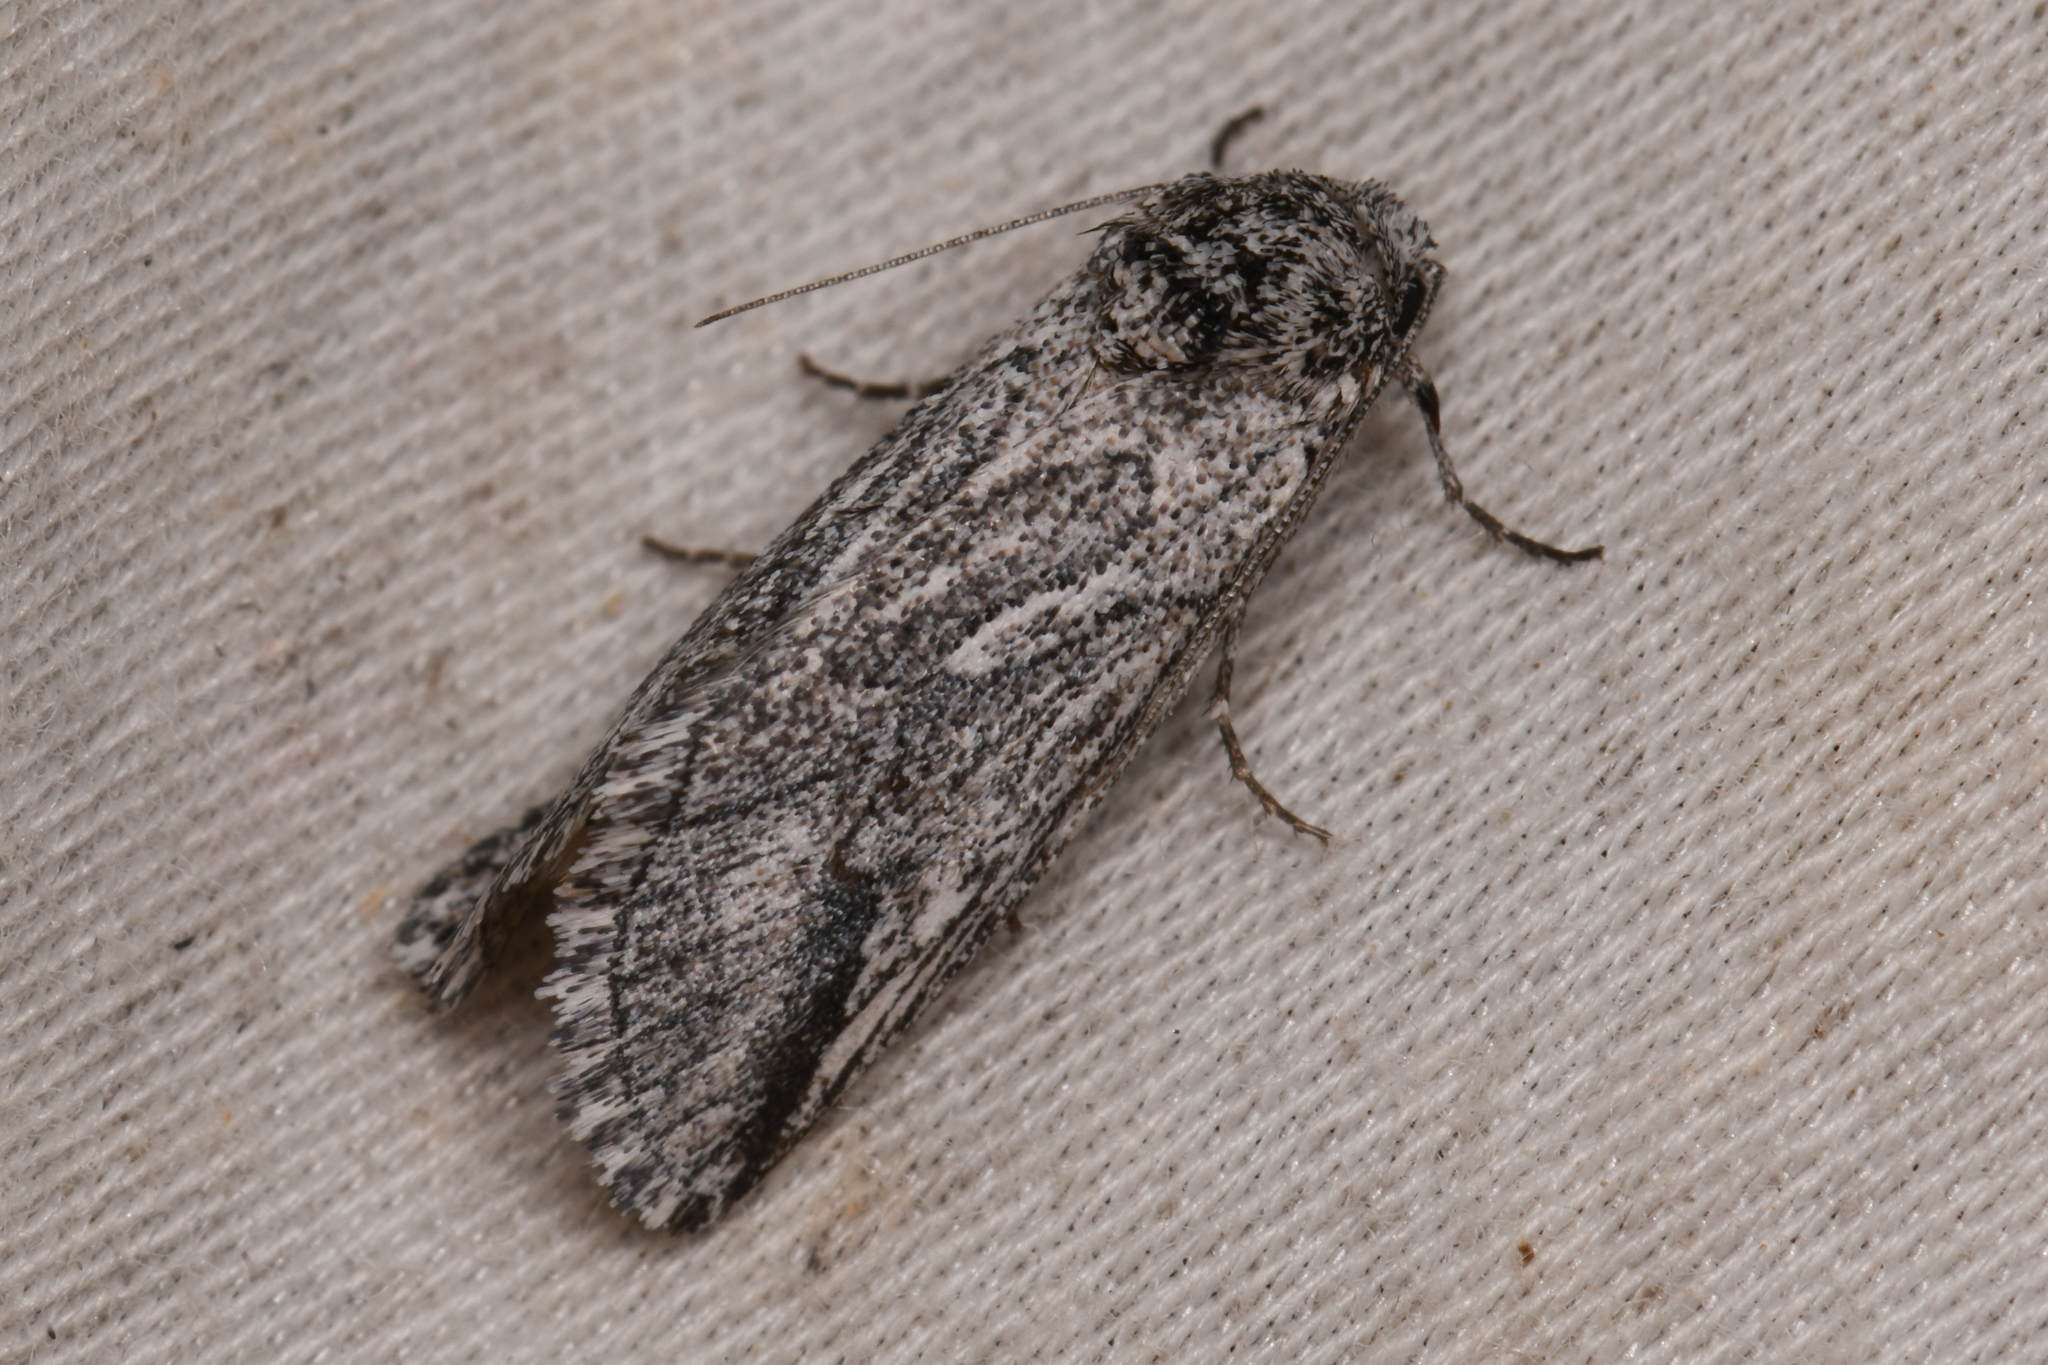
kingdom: Animalia
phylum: Arthropoda
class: Insecta
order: Lepidoptera
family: Noctuidae
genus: Oxycnemis
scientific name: Oxycnemis fusimacula
